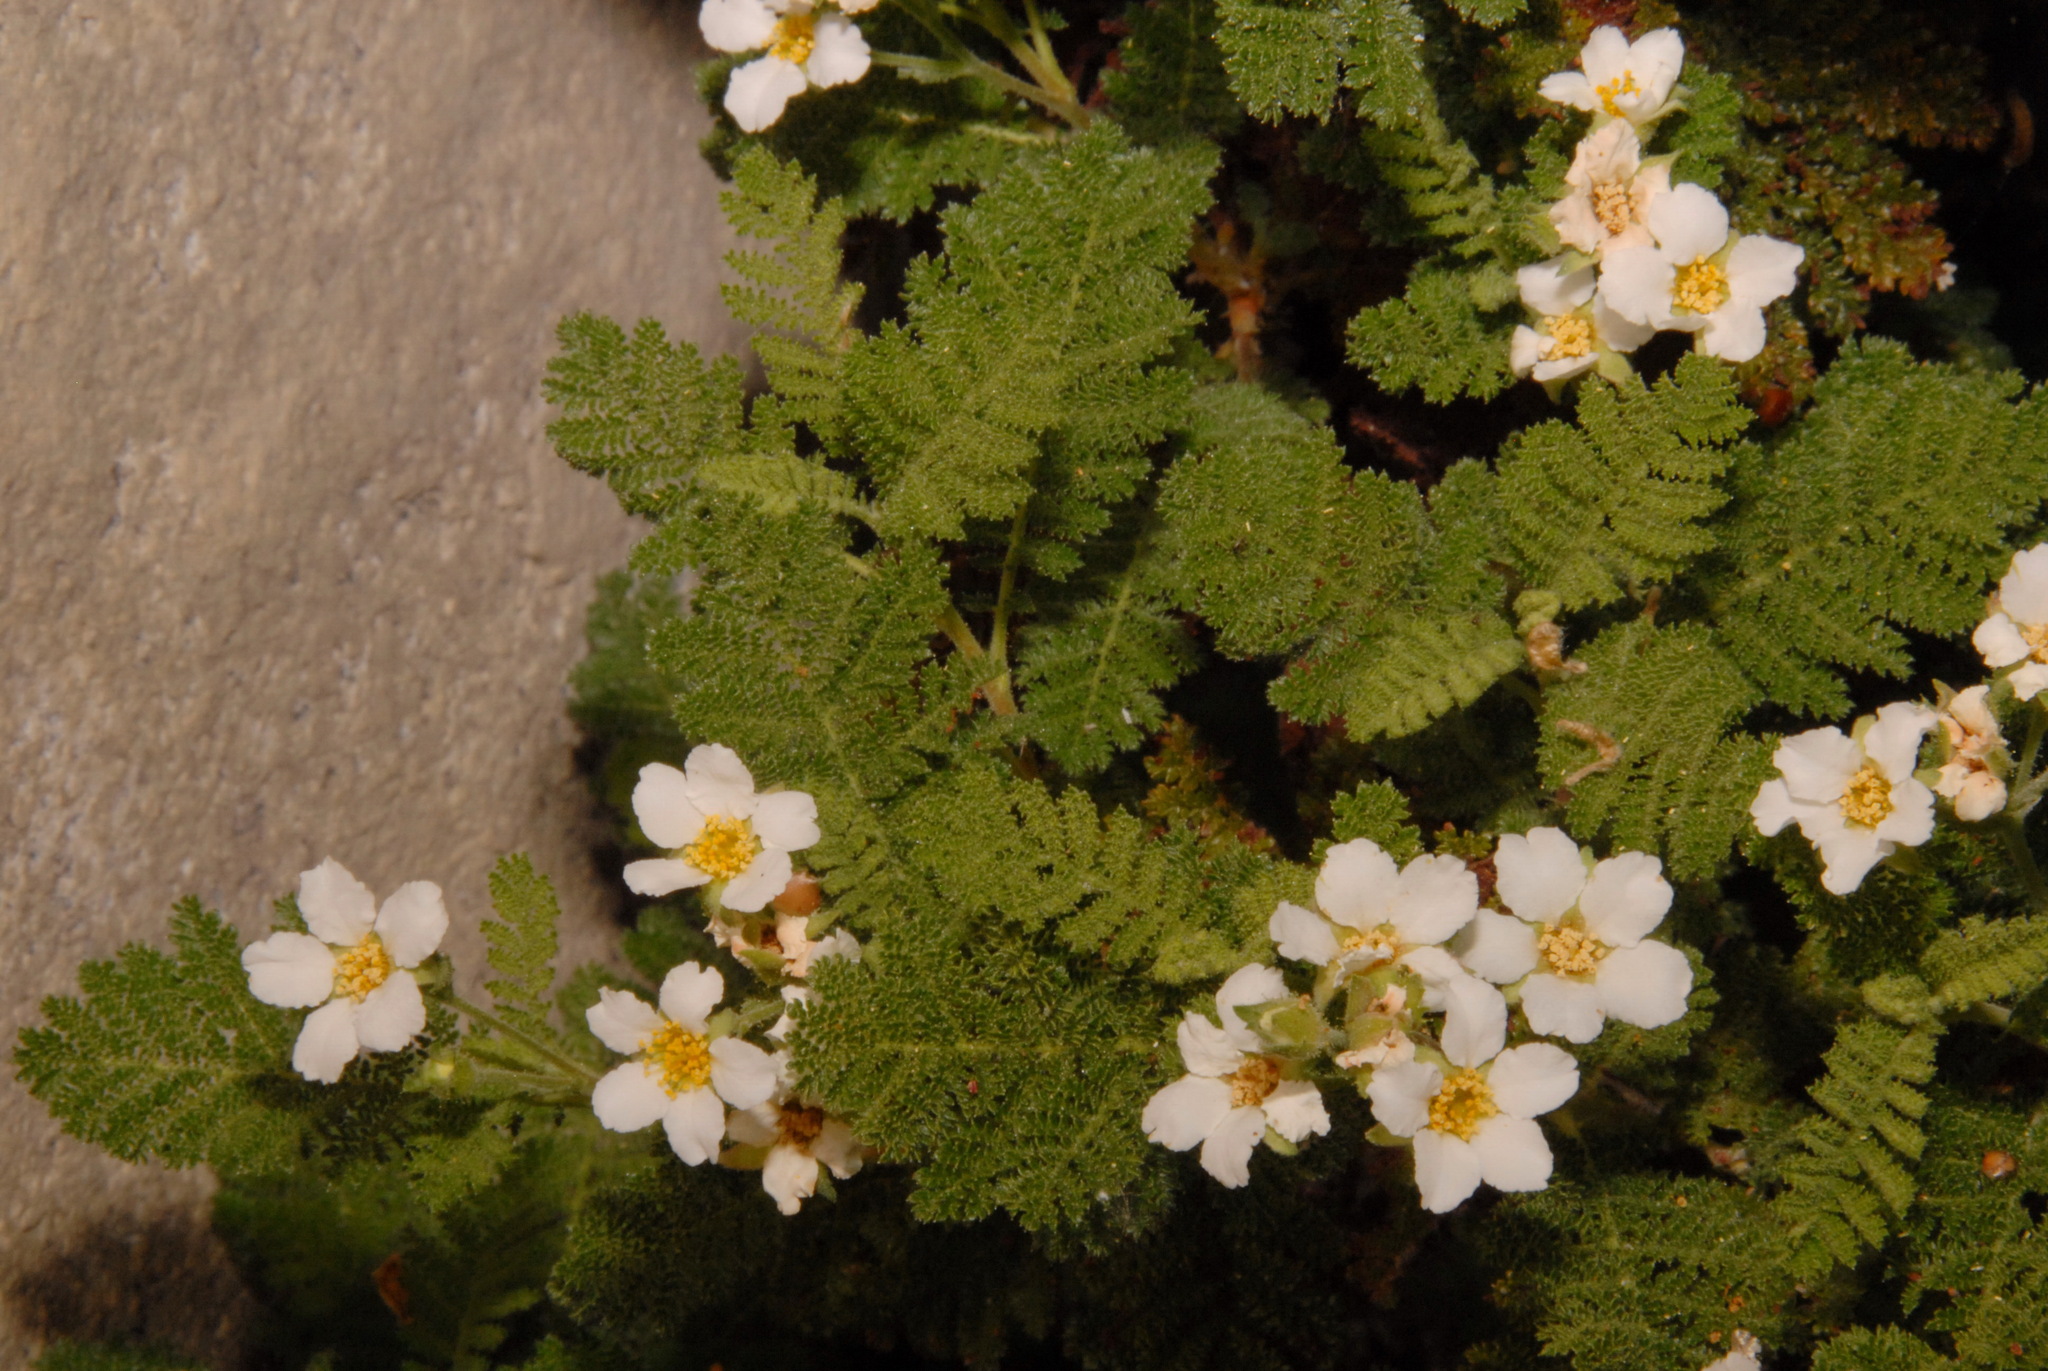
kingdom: Plantae
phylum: Tracheophyta
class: Magnoliopsida
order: Rosales
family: Rosaceae
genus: Chamaebatia
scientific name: Chamaebatia foliolosa
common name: Mountain misery
